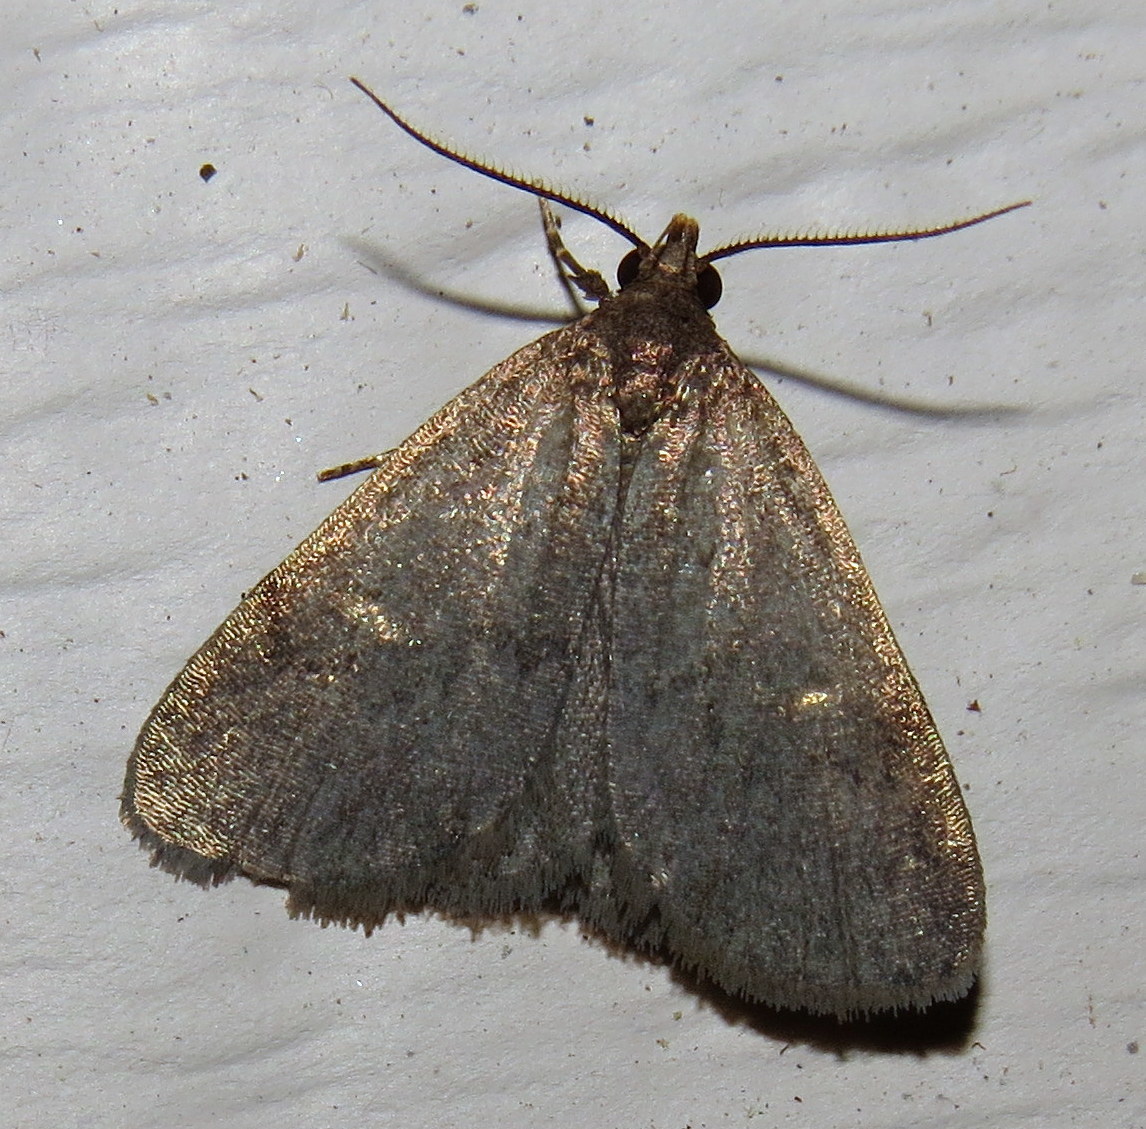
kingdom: Animalia
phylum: Arthropoda
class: Insecta
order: Lepidoptera
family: Erebidae
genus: Idia
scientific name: Idia rotundalis
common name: Rotund idia moth
